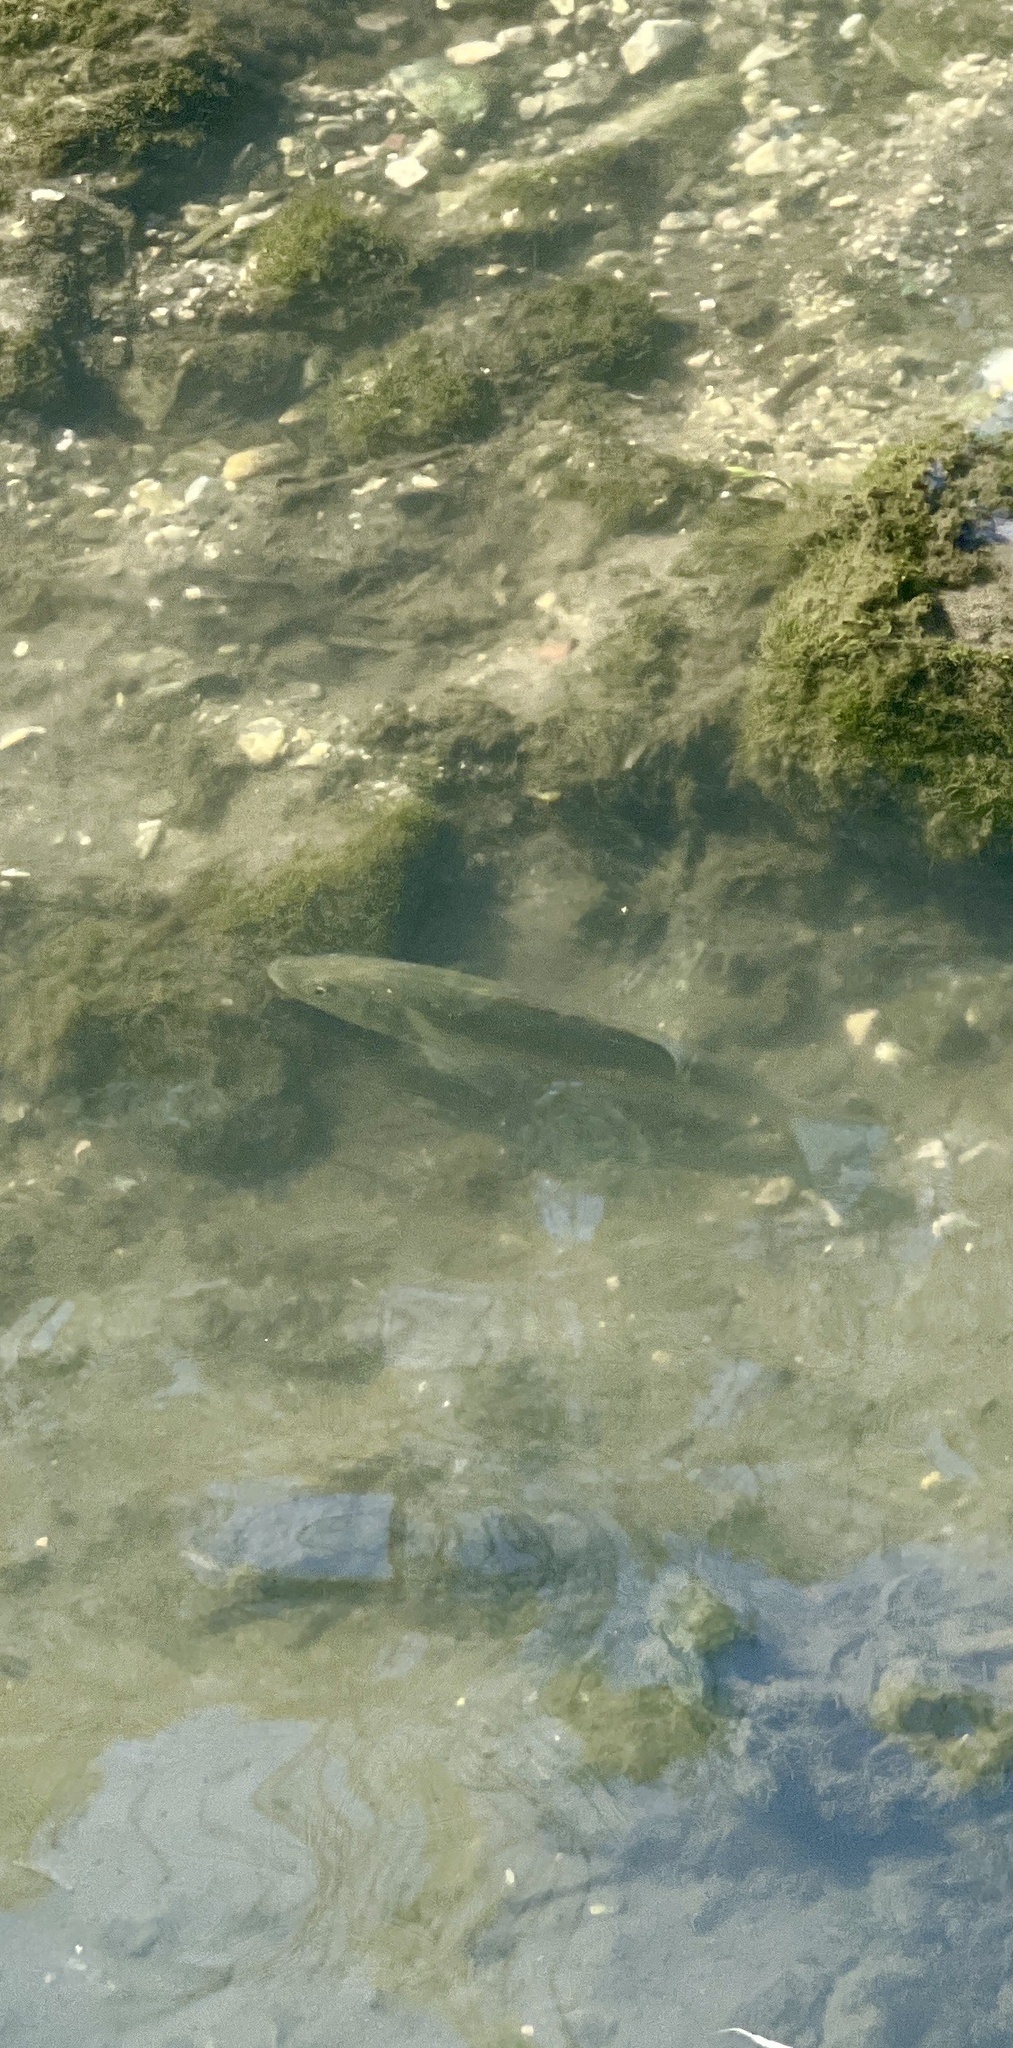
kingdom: Animalia
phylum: Chordata
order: Perciformes
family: Moronidae
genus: Dicentrarchus
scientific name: Dicentrarchus labrax
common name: European seabass
